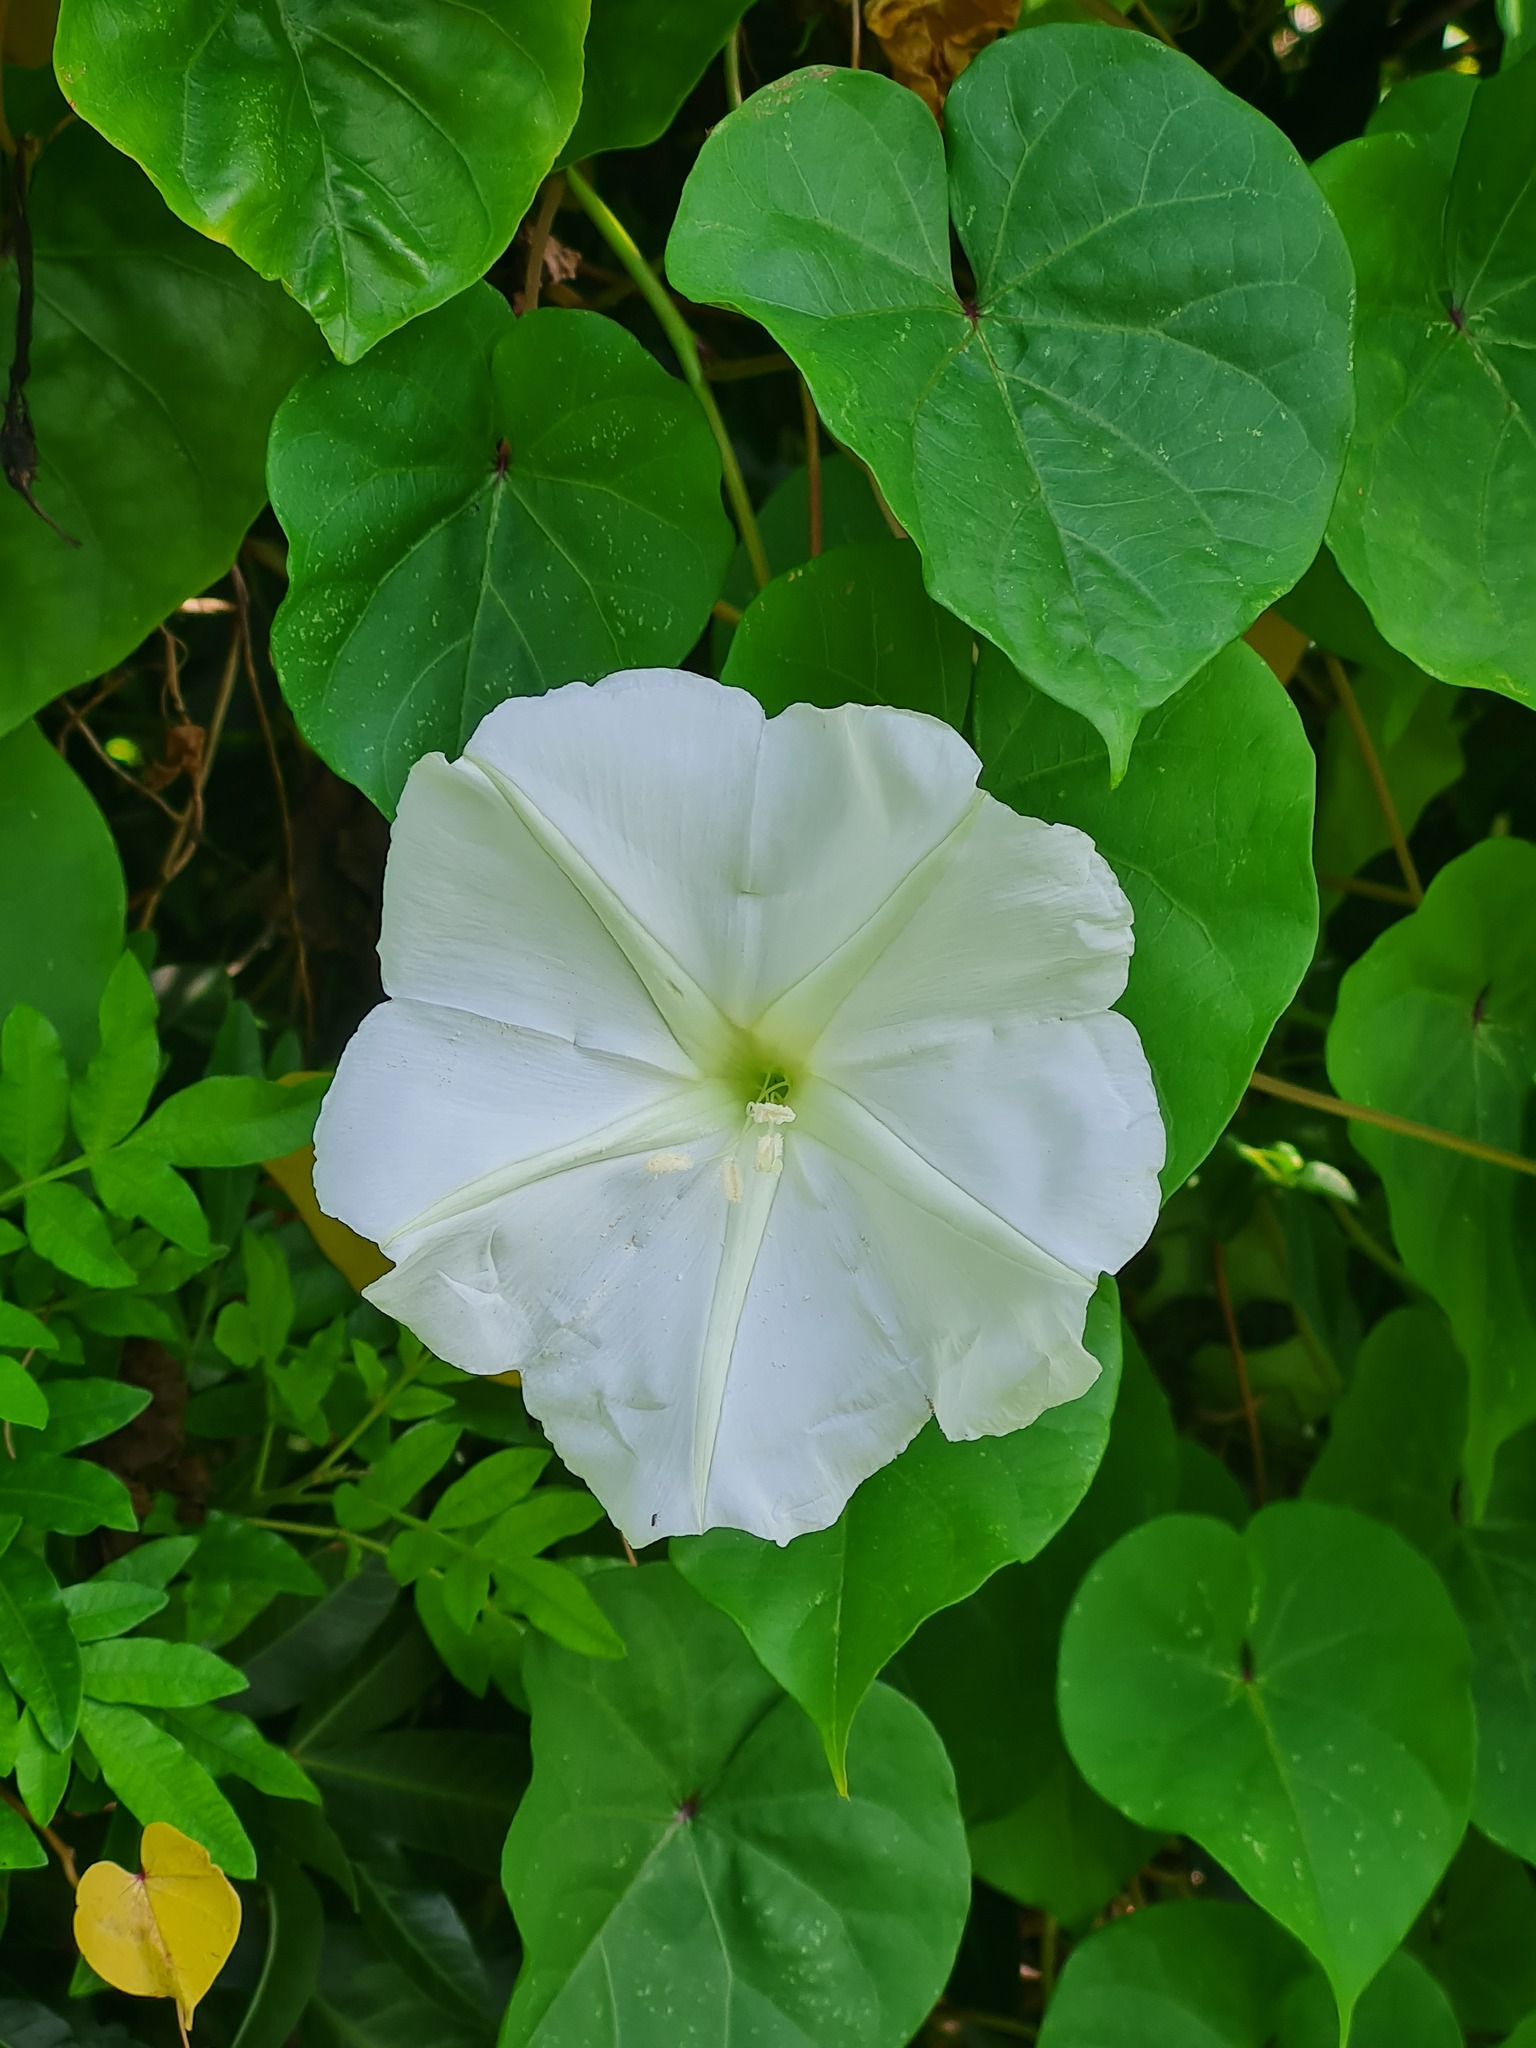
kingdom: Plantae
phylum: Tracheophyta
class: Magnoliopsida
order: Solanales
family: Convolvulaceae
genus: Ipomoea
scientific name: Ipomoea alba
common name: Moonflower
